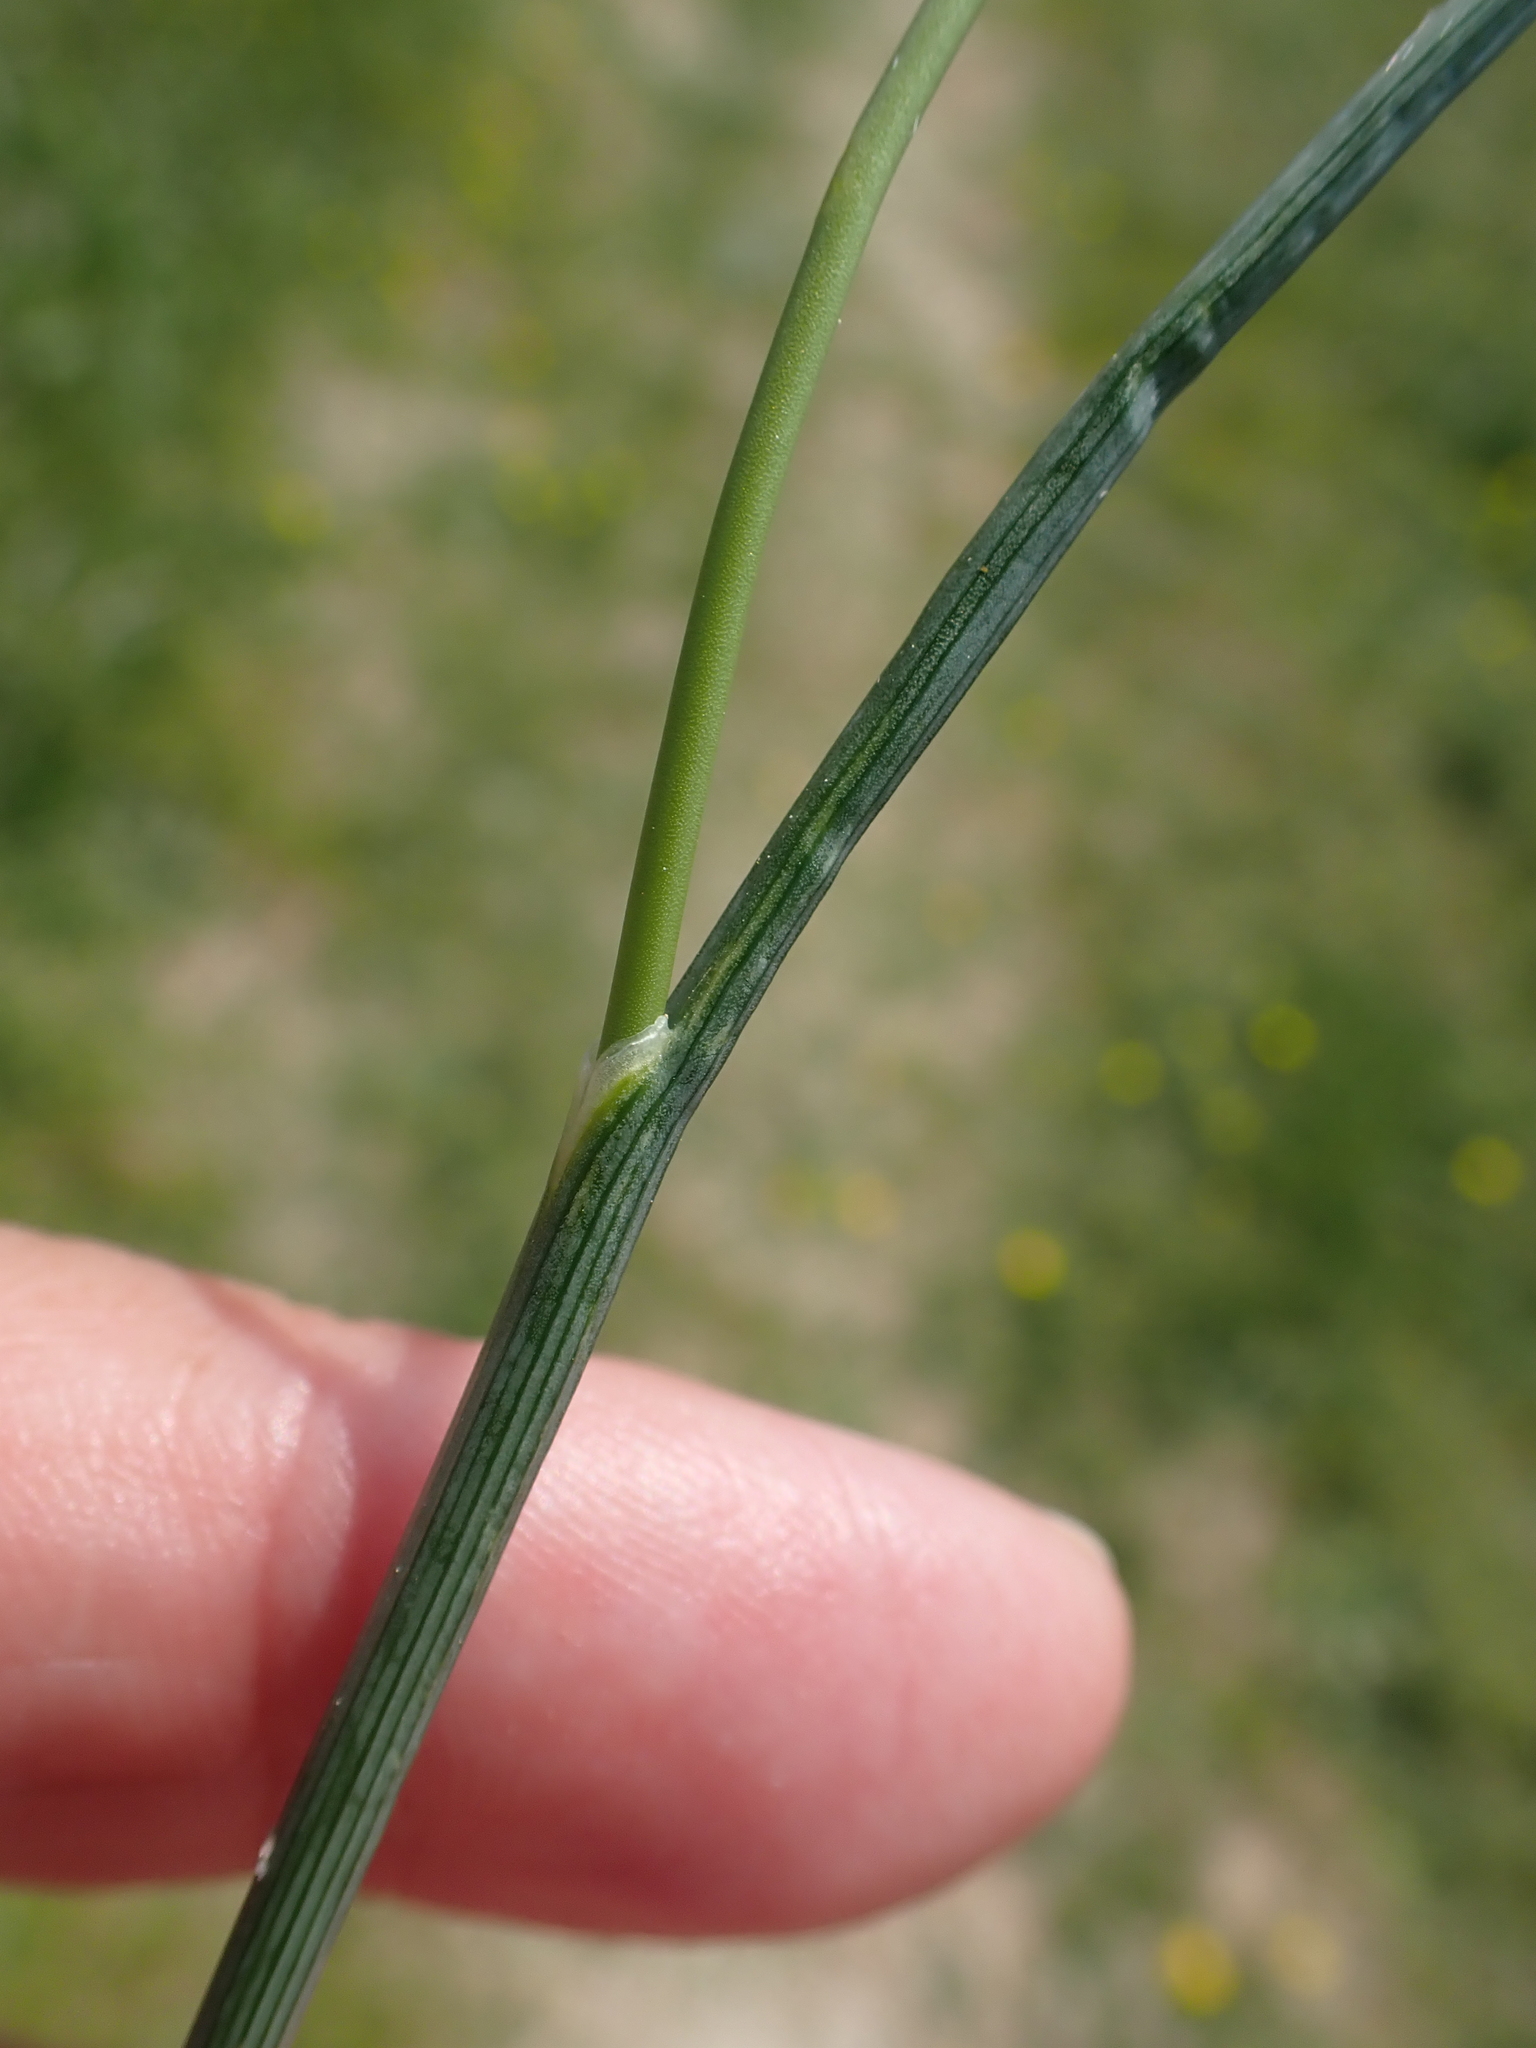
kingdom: Plantae
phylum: Tracheophyta
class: Liliopsida
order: Asparagales
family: Amaryllidaceae
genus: Allium
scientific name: Allium vineale
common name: Crow garlic
